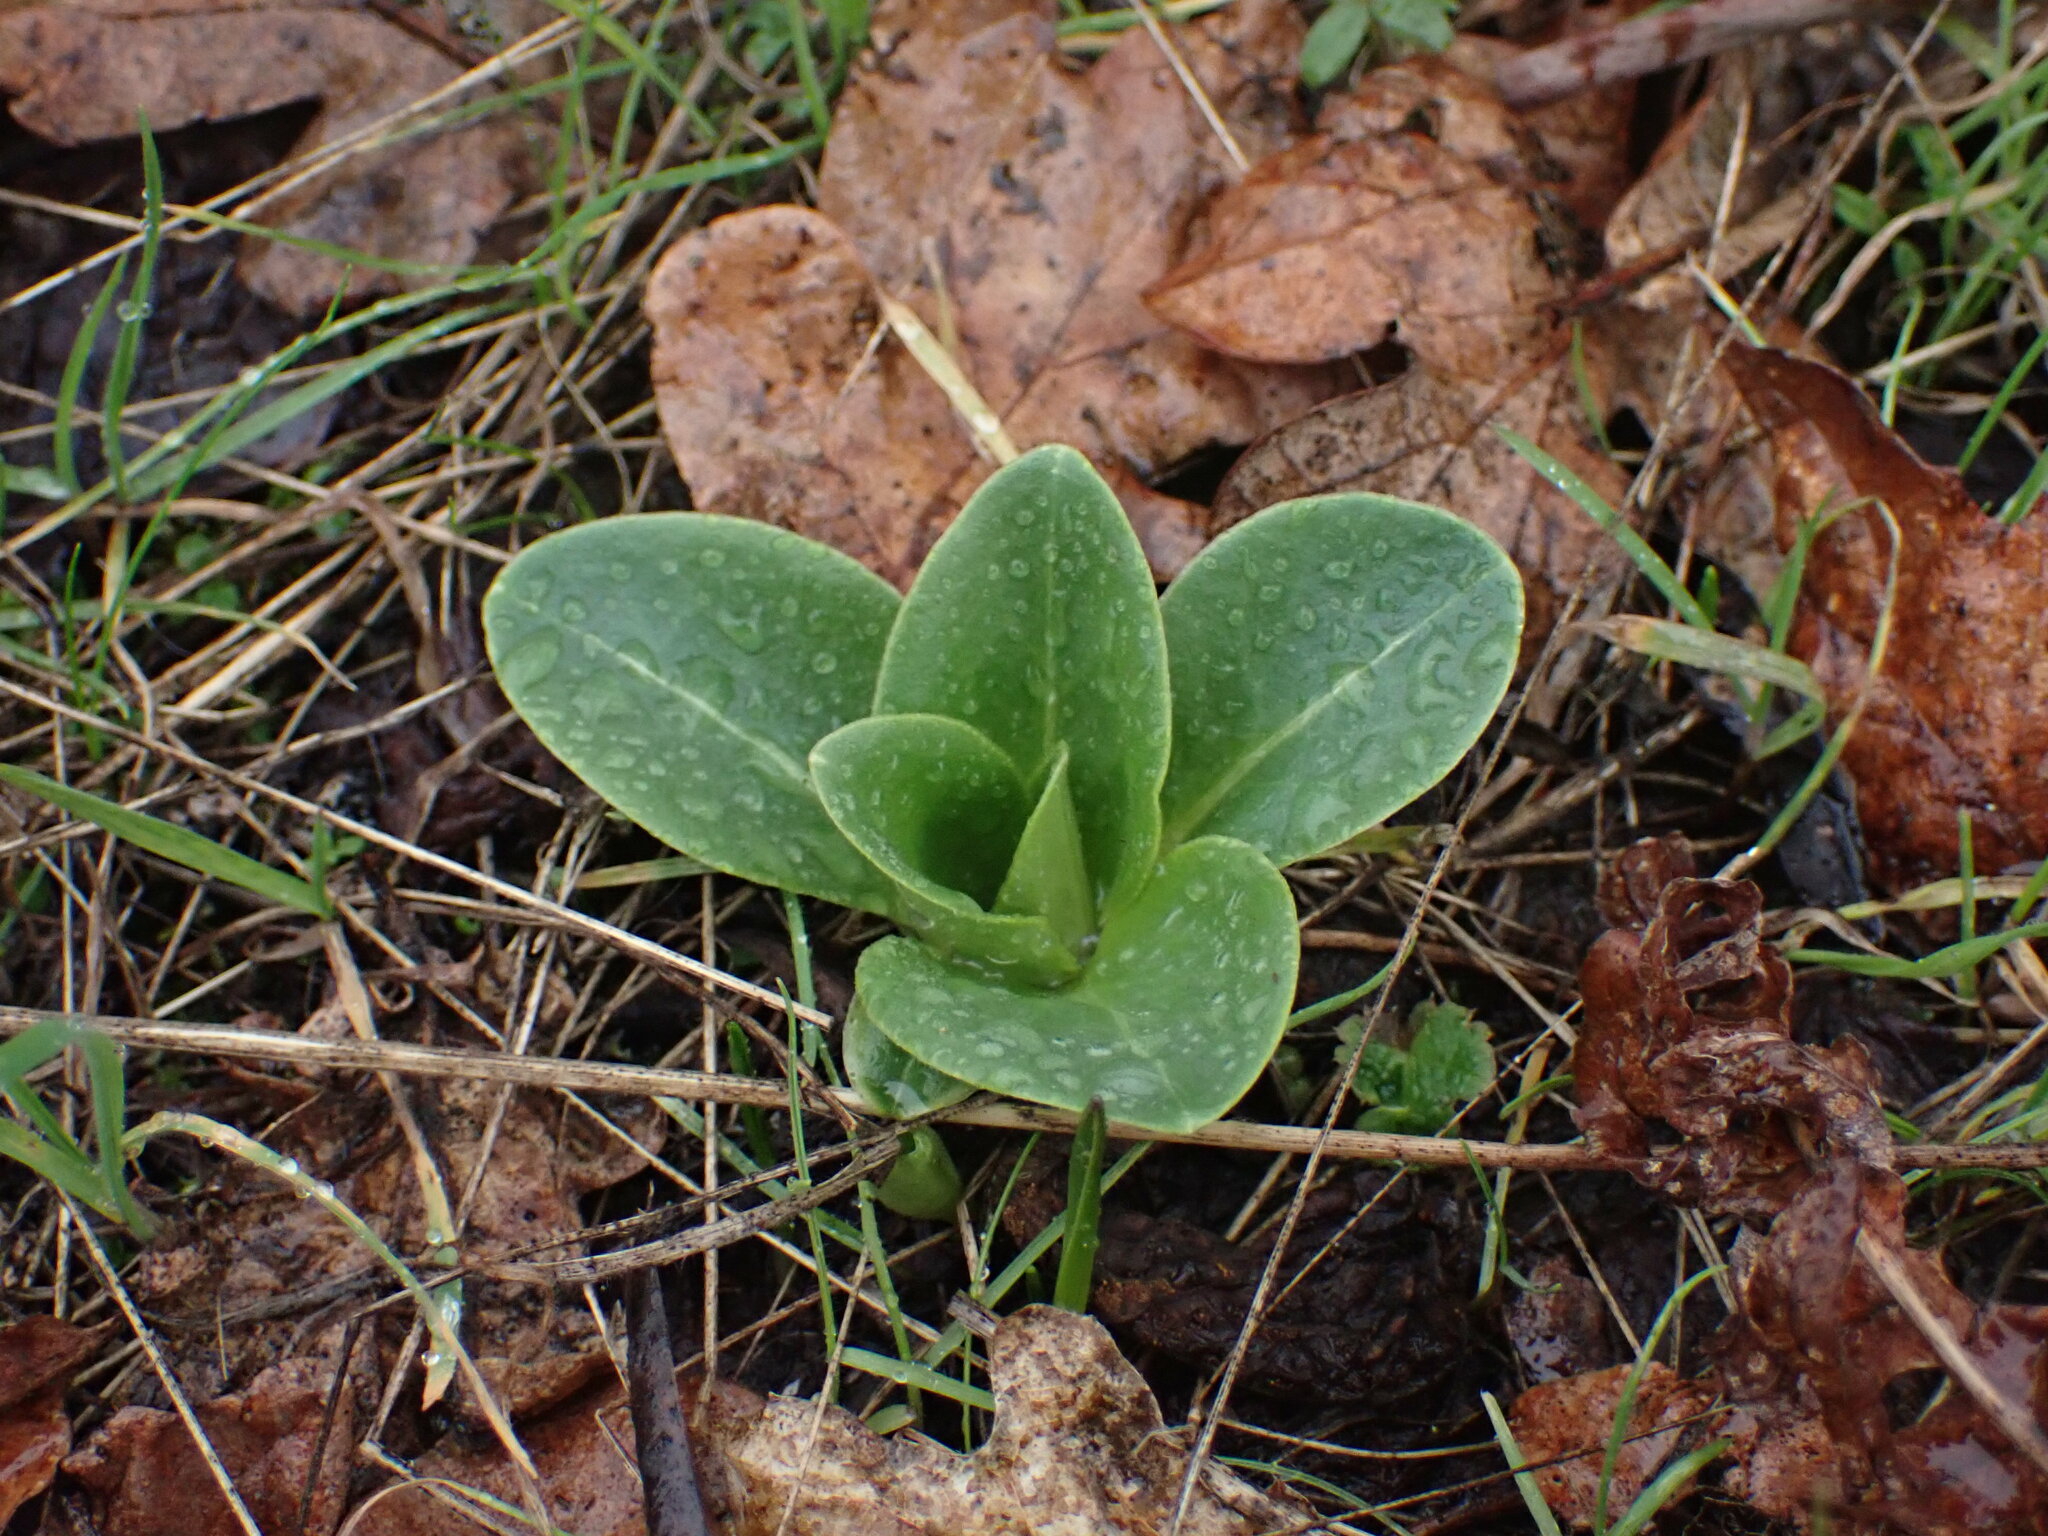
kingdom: Plantae
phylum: Tracheophyta
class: Magnoliopsida
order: Ericales
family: Primulaceae
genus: Dodecatheon
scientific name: Dodecatheon hendersonii
